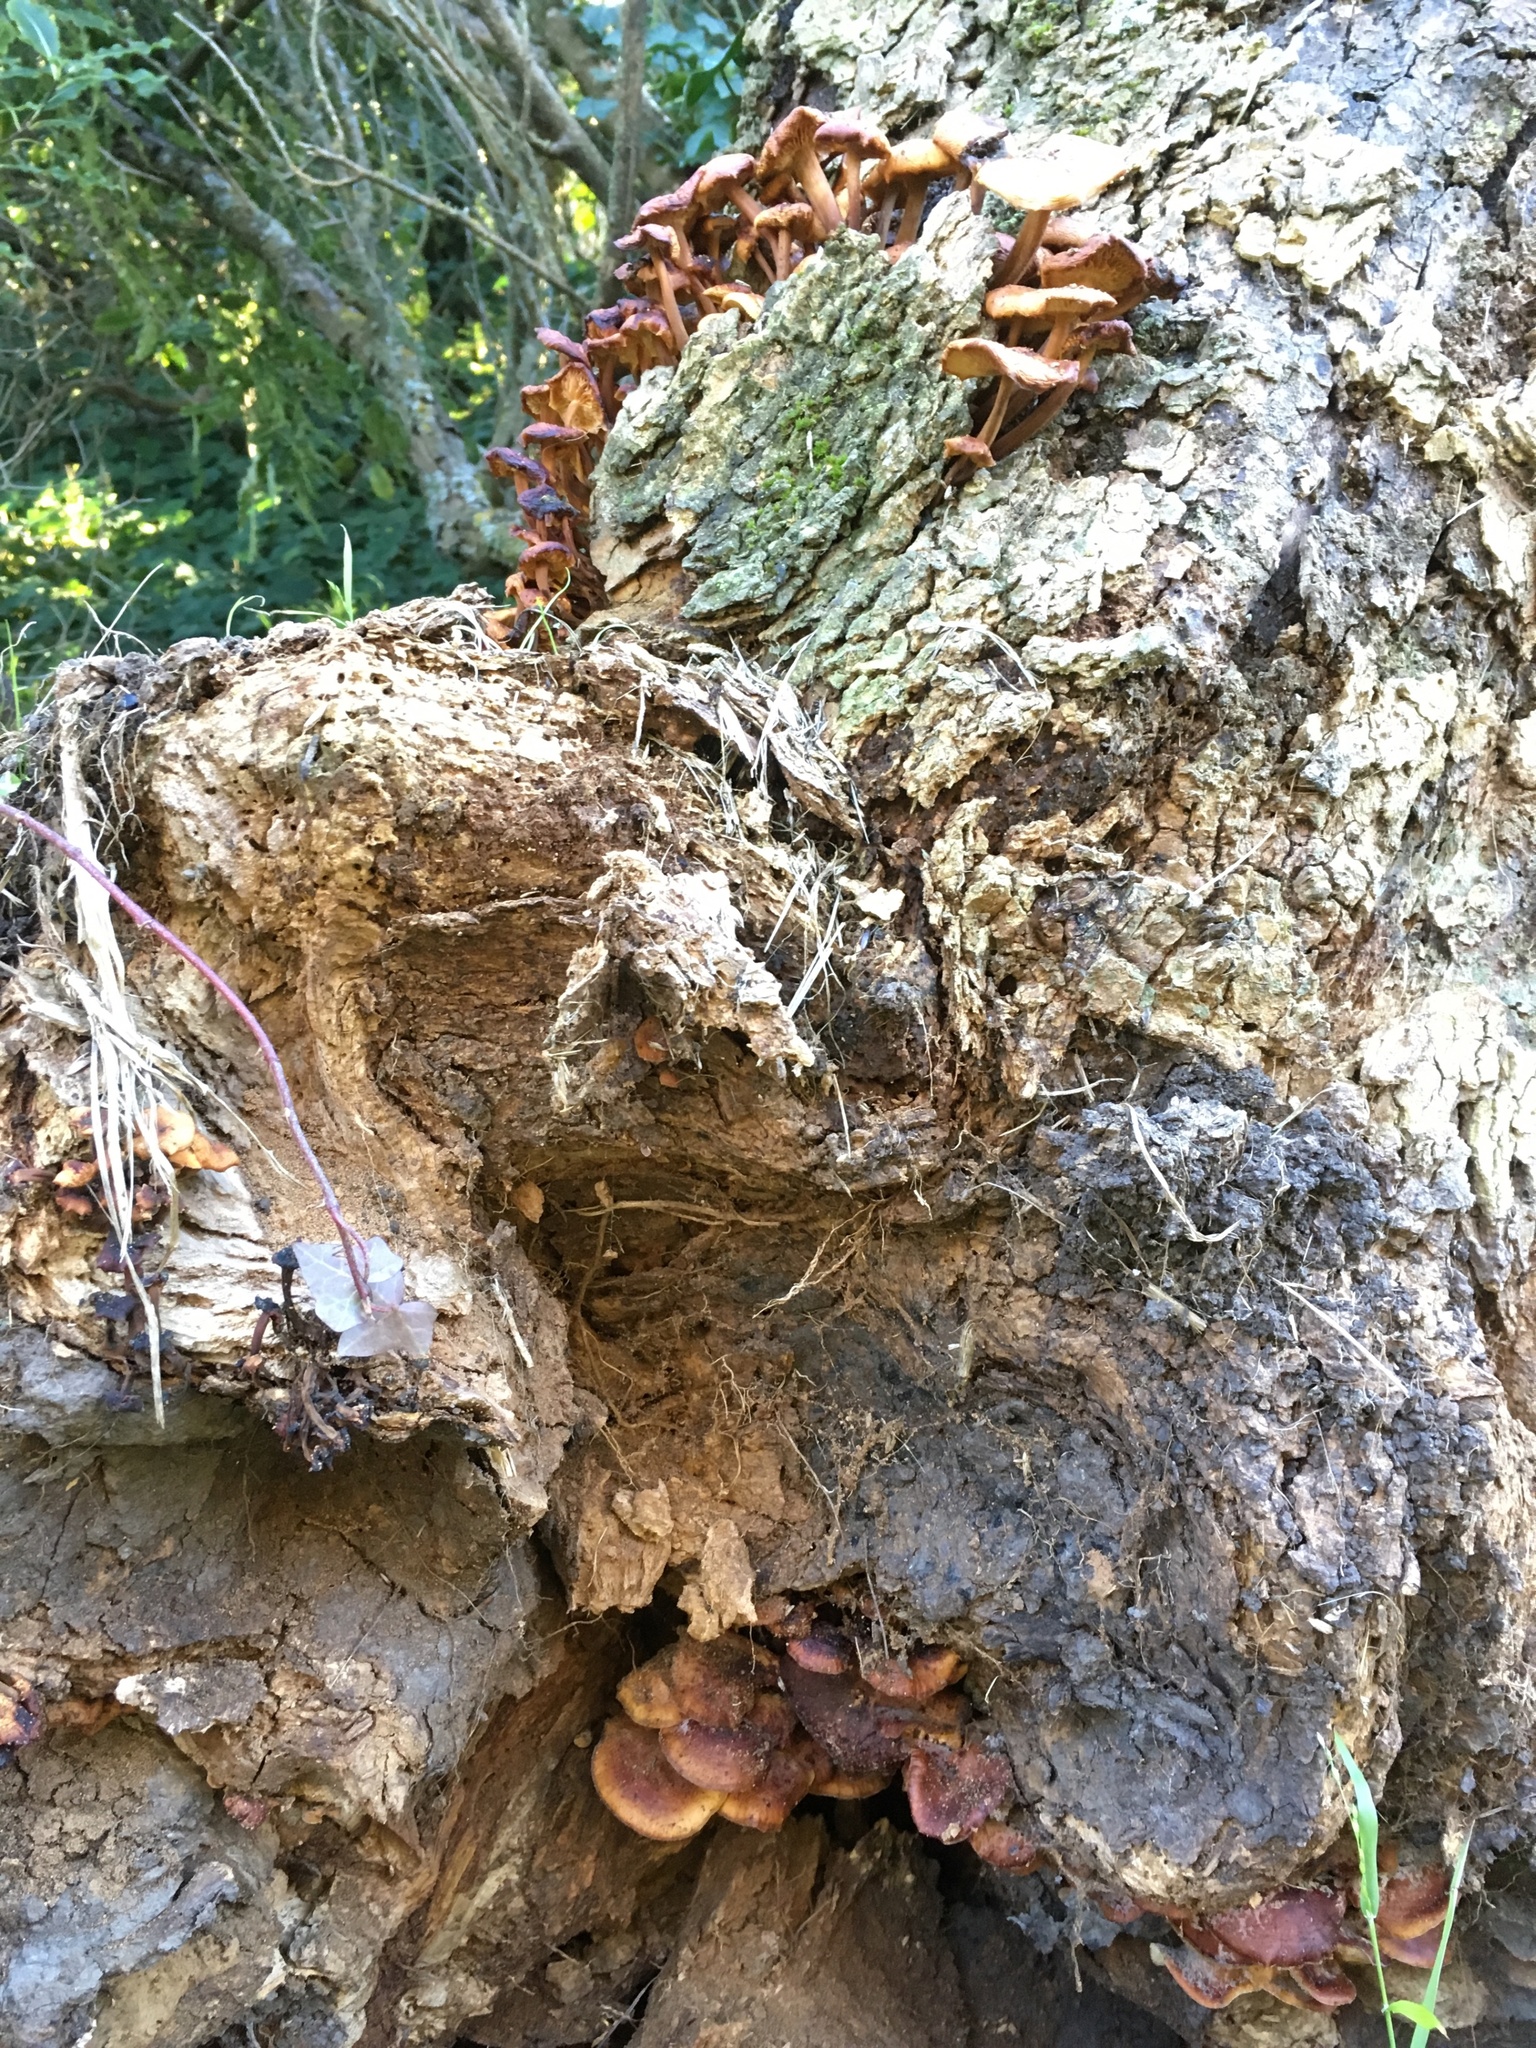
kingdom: Fungi
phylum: Basidiomycota
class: Agaricomycetes
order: Agaricales
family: Physalacriaceae
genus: Flammulina
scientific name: Flammulina velutipes
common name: Velvet shank
